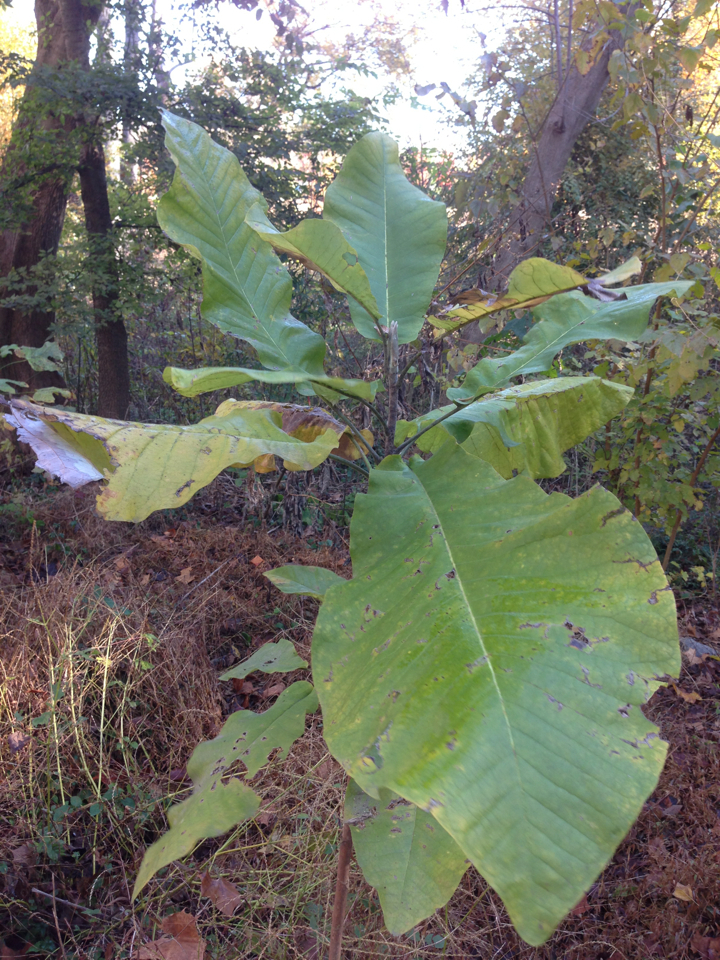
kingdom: Plantae
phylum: Tracheophyta
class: Magnoliopsida
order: Magnoliales
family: Magnoliaceae
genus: Magnolia
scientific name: Magnolia macrophylla
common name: Big-leaf magnolia
